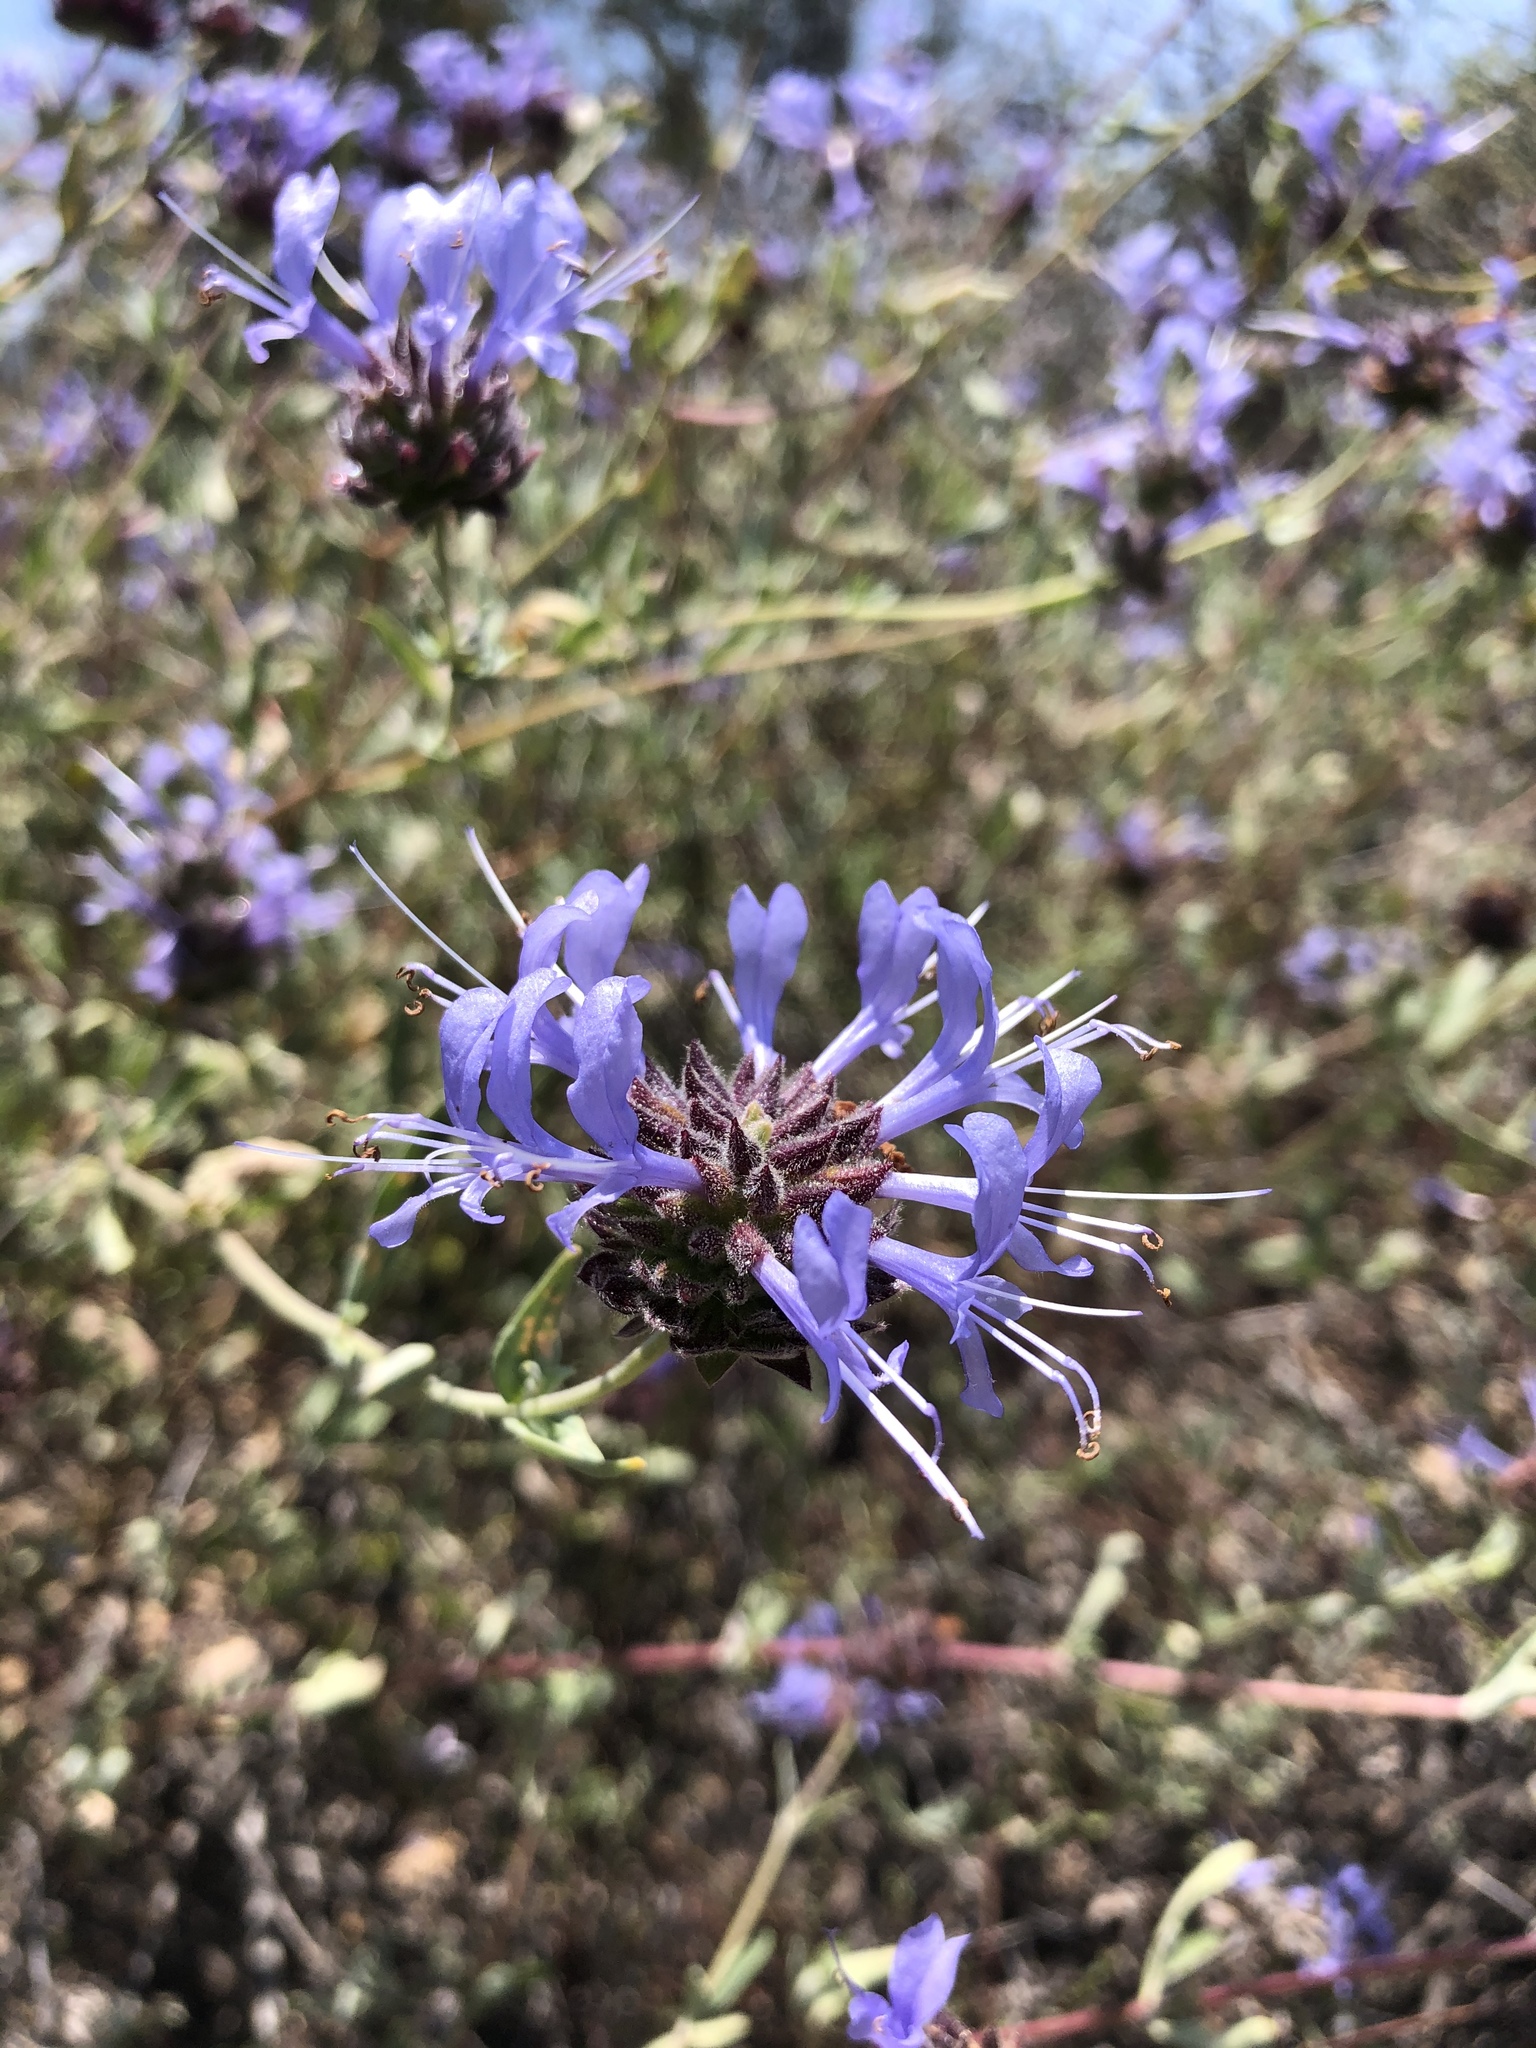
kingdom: Plantae
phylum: Tracheophyta
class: Magnoliopsida
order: Lamiales
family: Lamiaceae
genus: Salvia
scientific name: Salvia clevelandii
